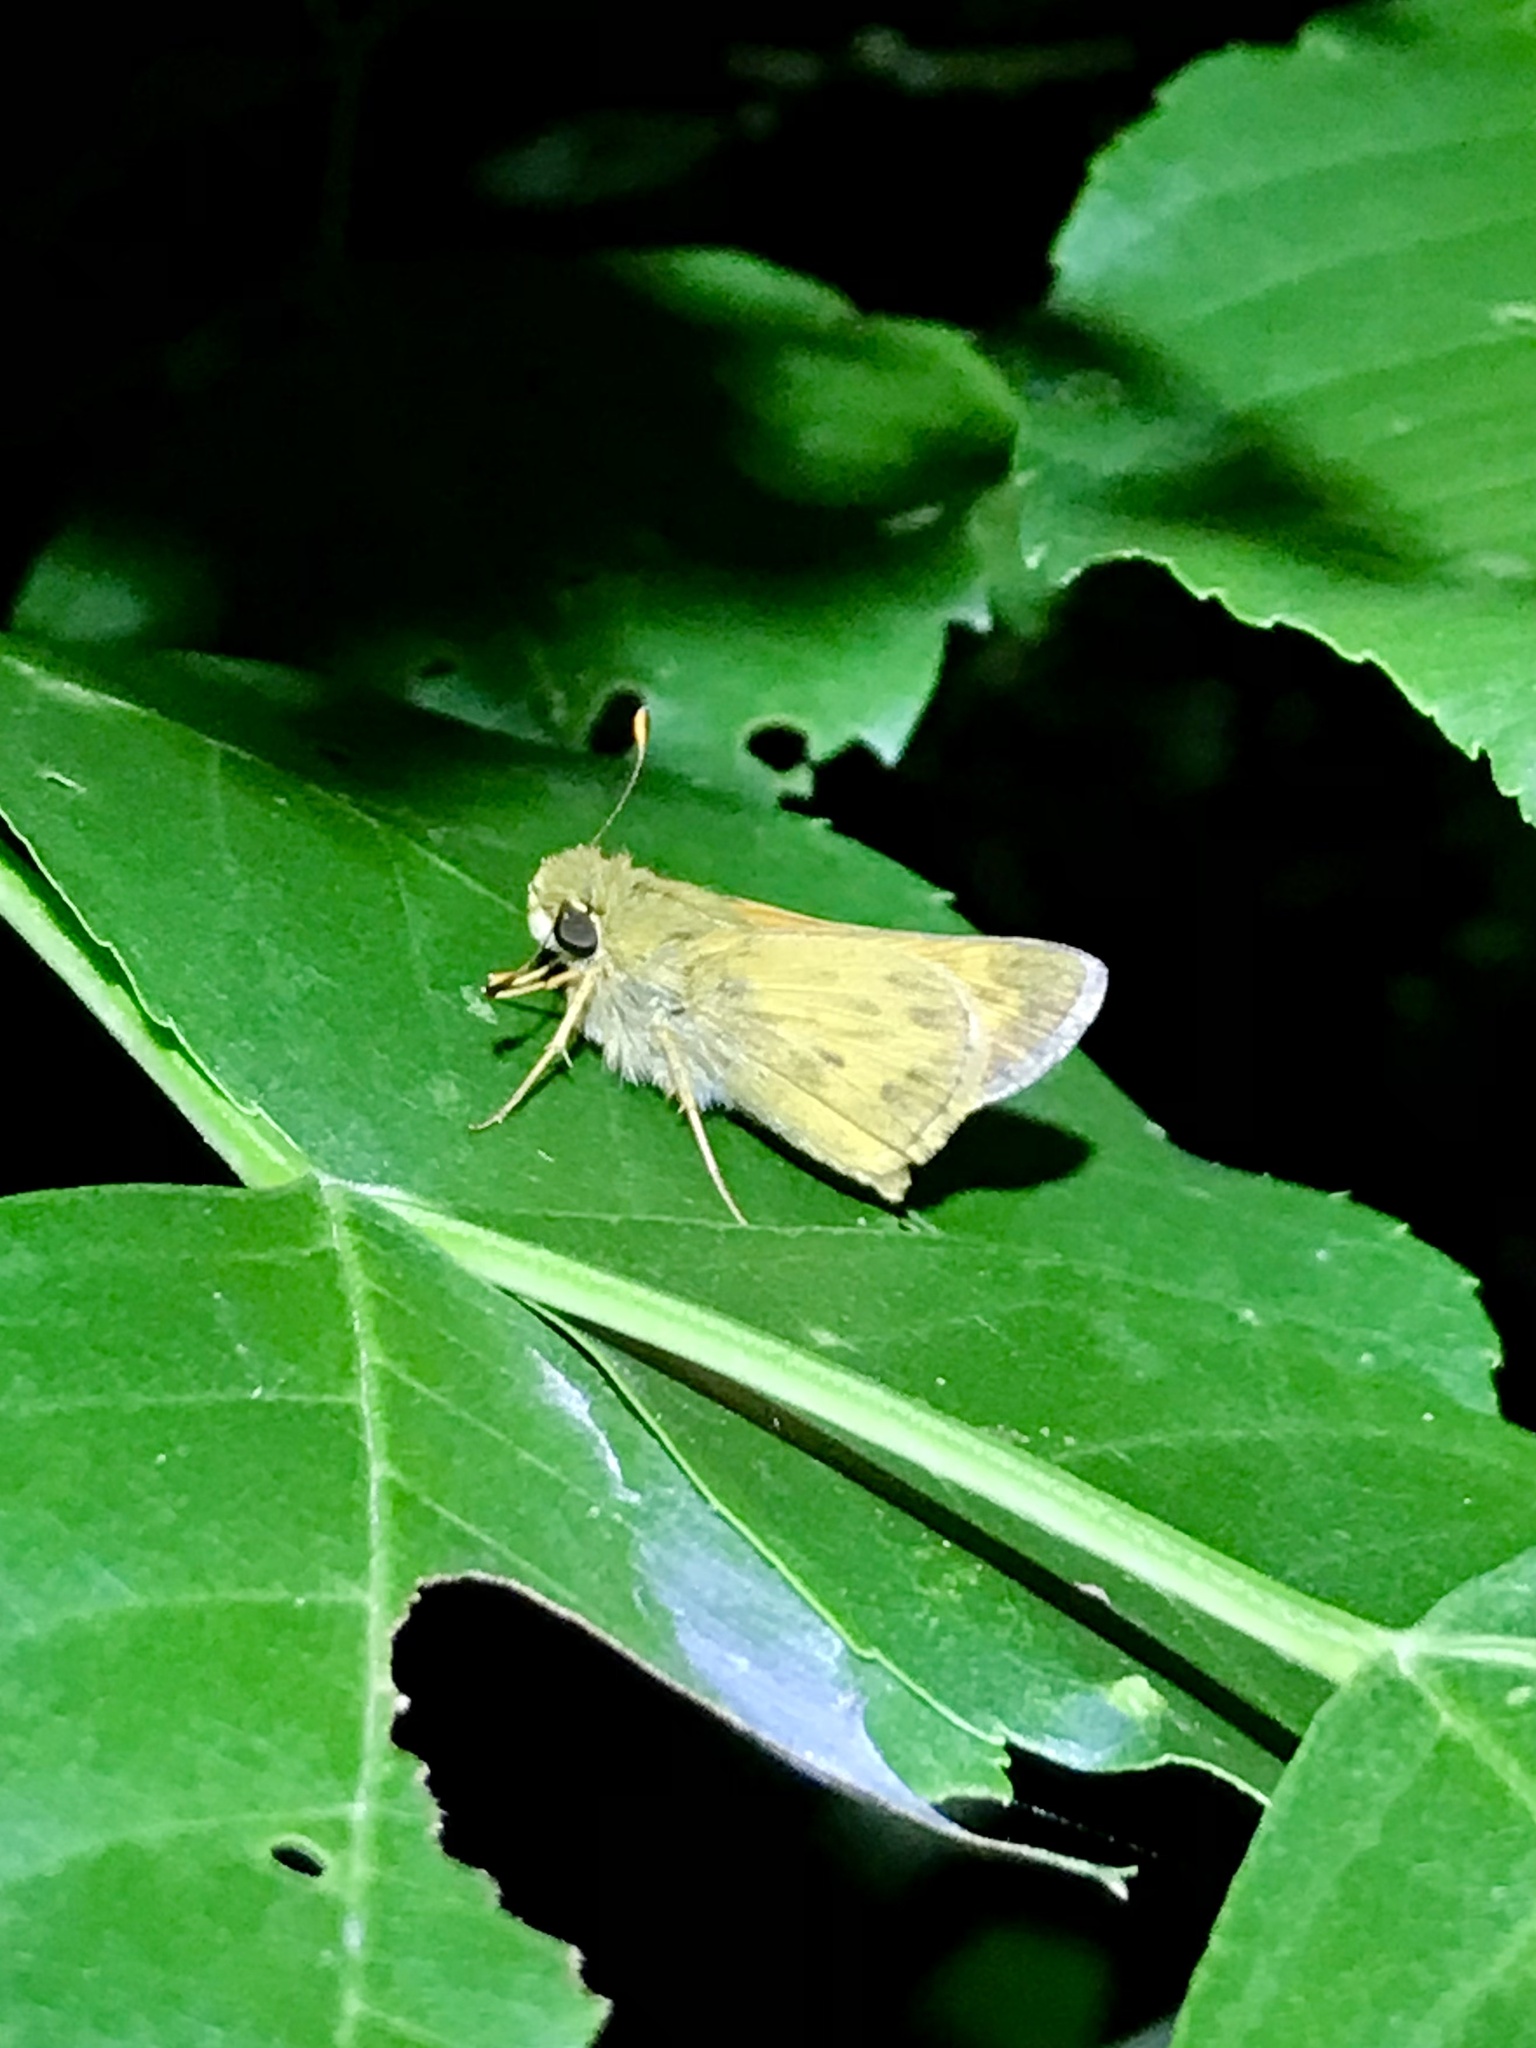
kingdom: Animalia
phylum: Arthropoda
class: Insecta
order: Lepidoptera
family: Hesperiidae
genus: Hylephila
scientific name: Hylephila phyleus
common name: Fiery skipper
